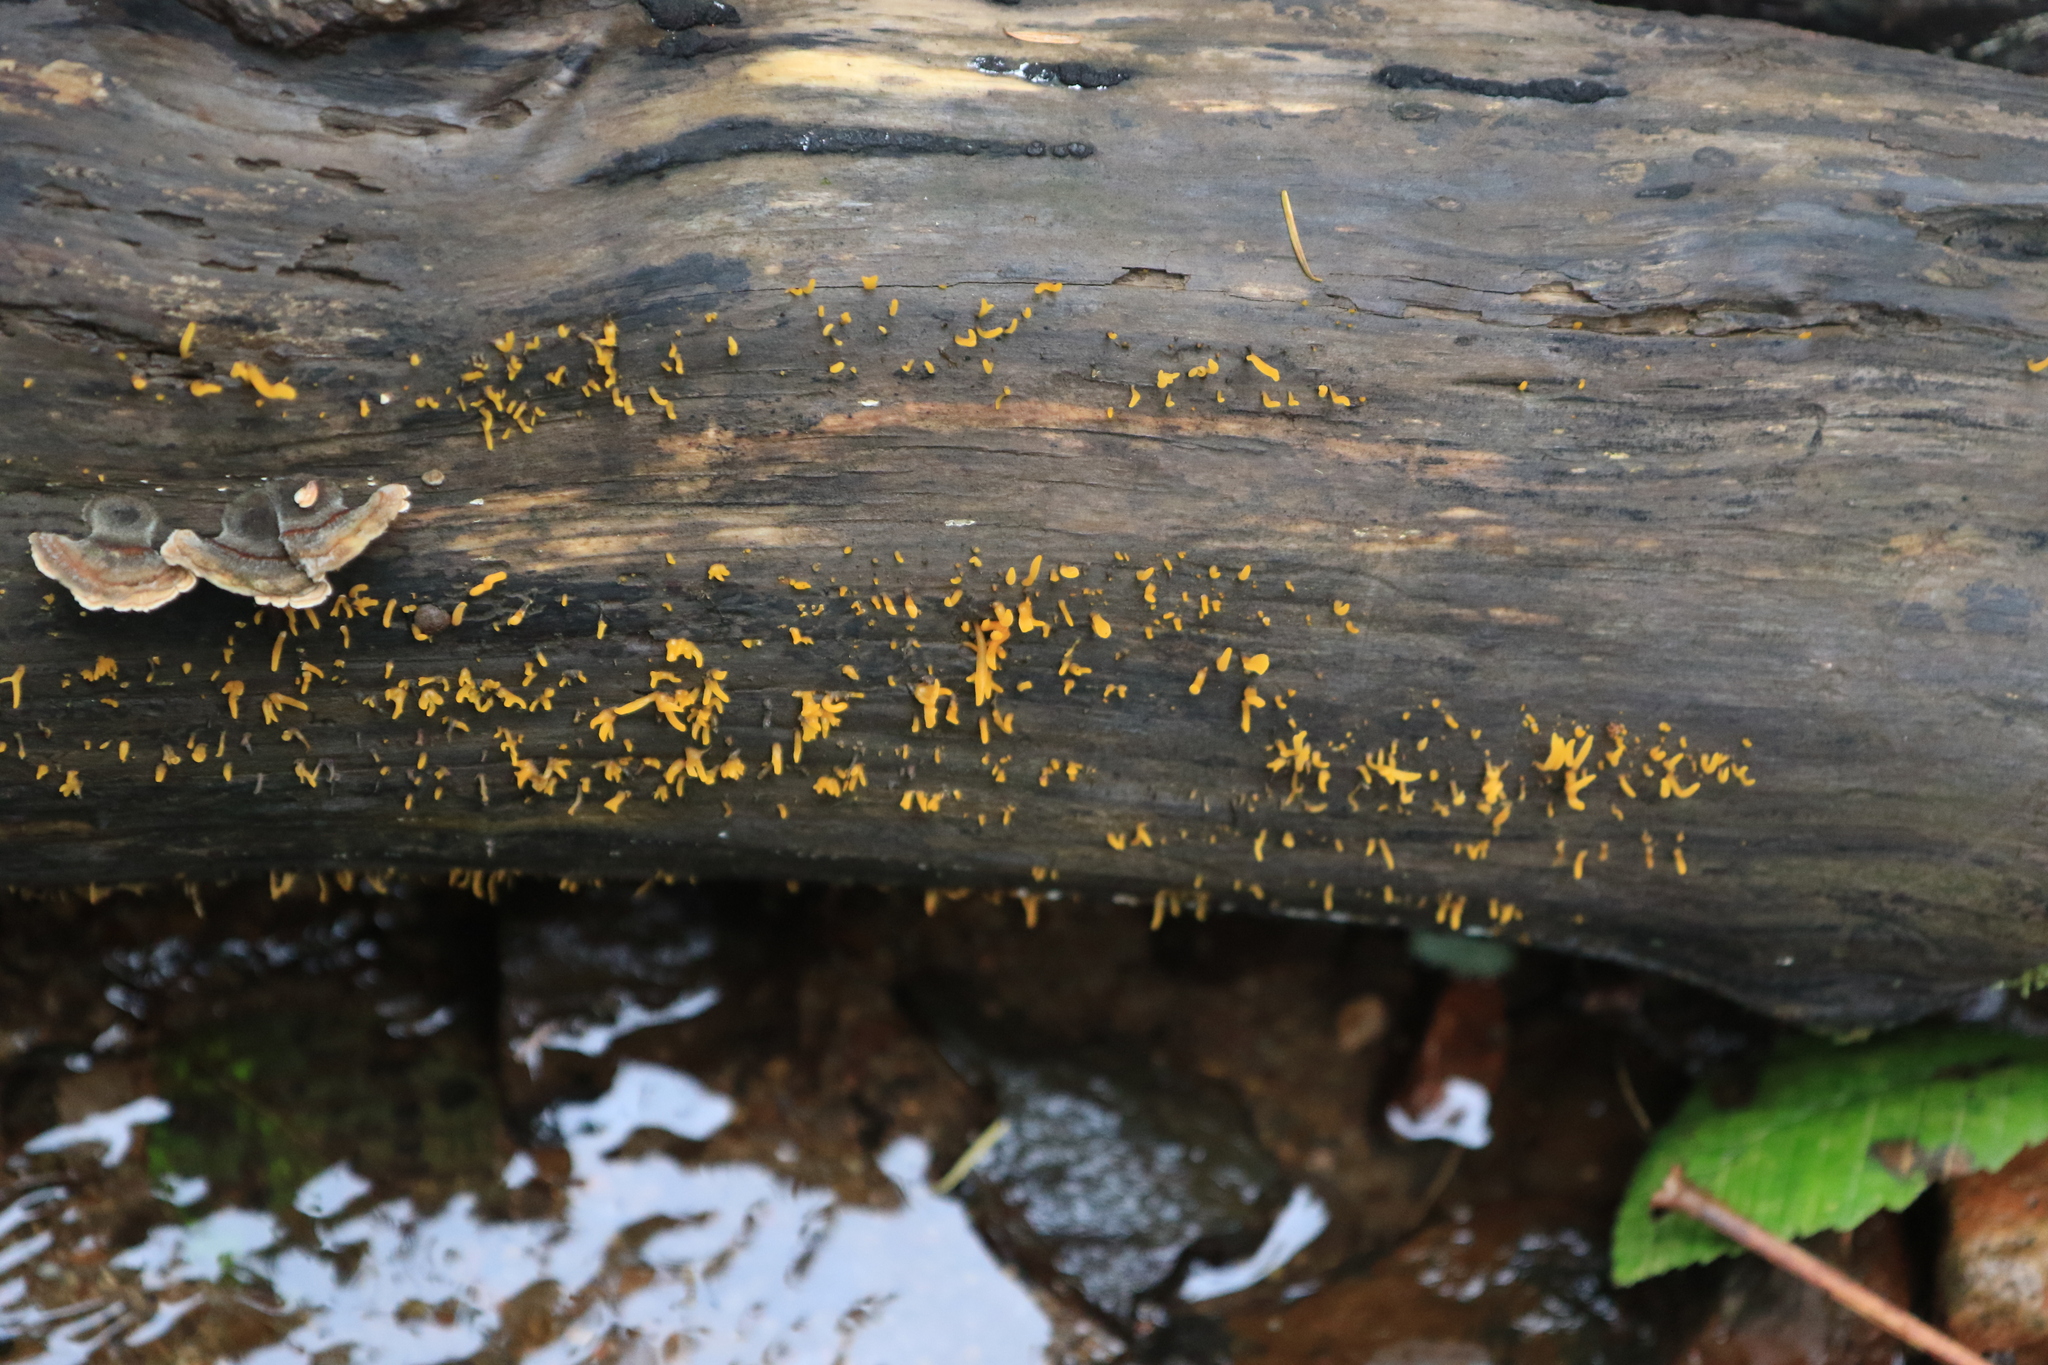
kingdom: Fungi
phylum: Basidiomycota
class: Dacrymycetes
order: Dacrymycetales
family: Dacrymycetaceae
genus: Calocera
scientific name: Calocera cornea
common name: Small stagshorn
